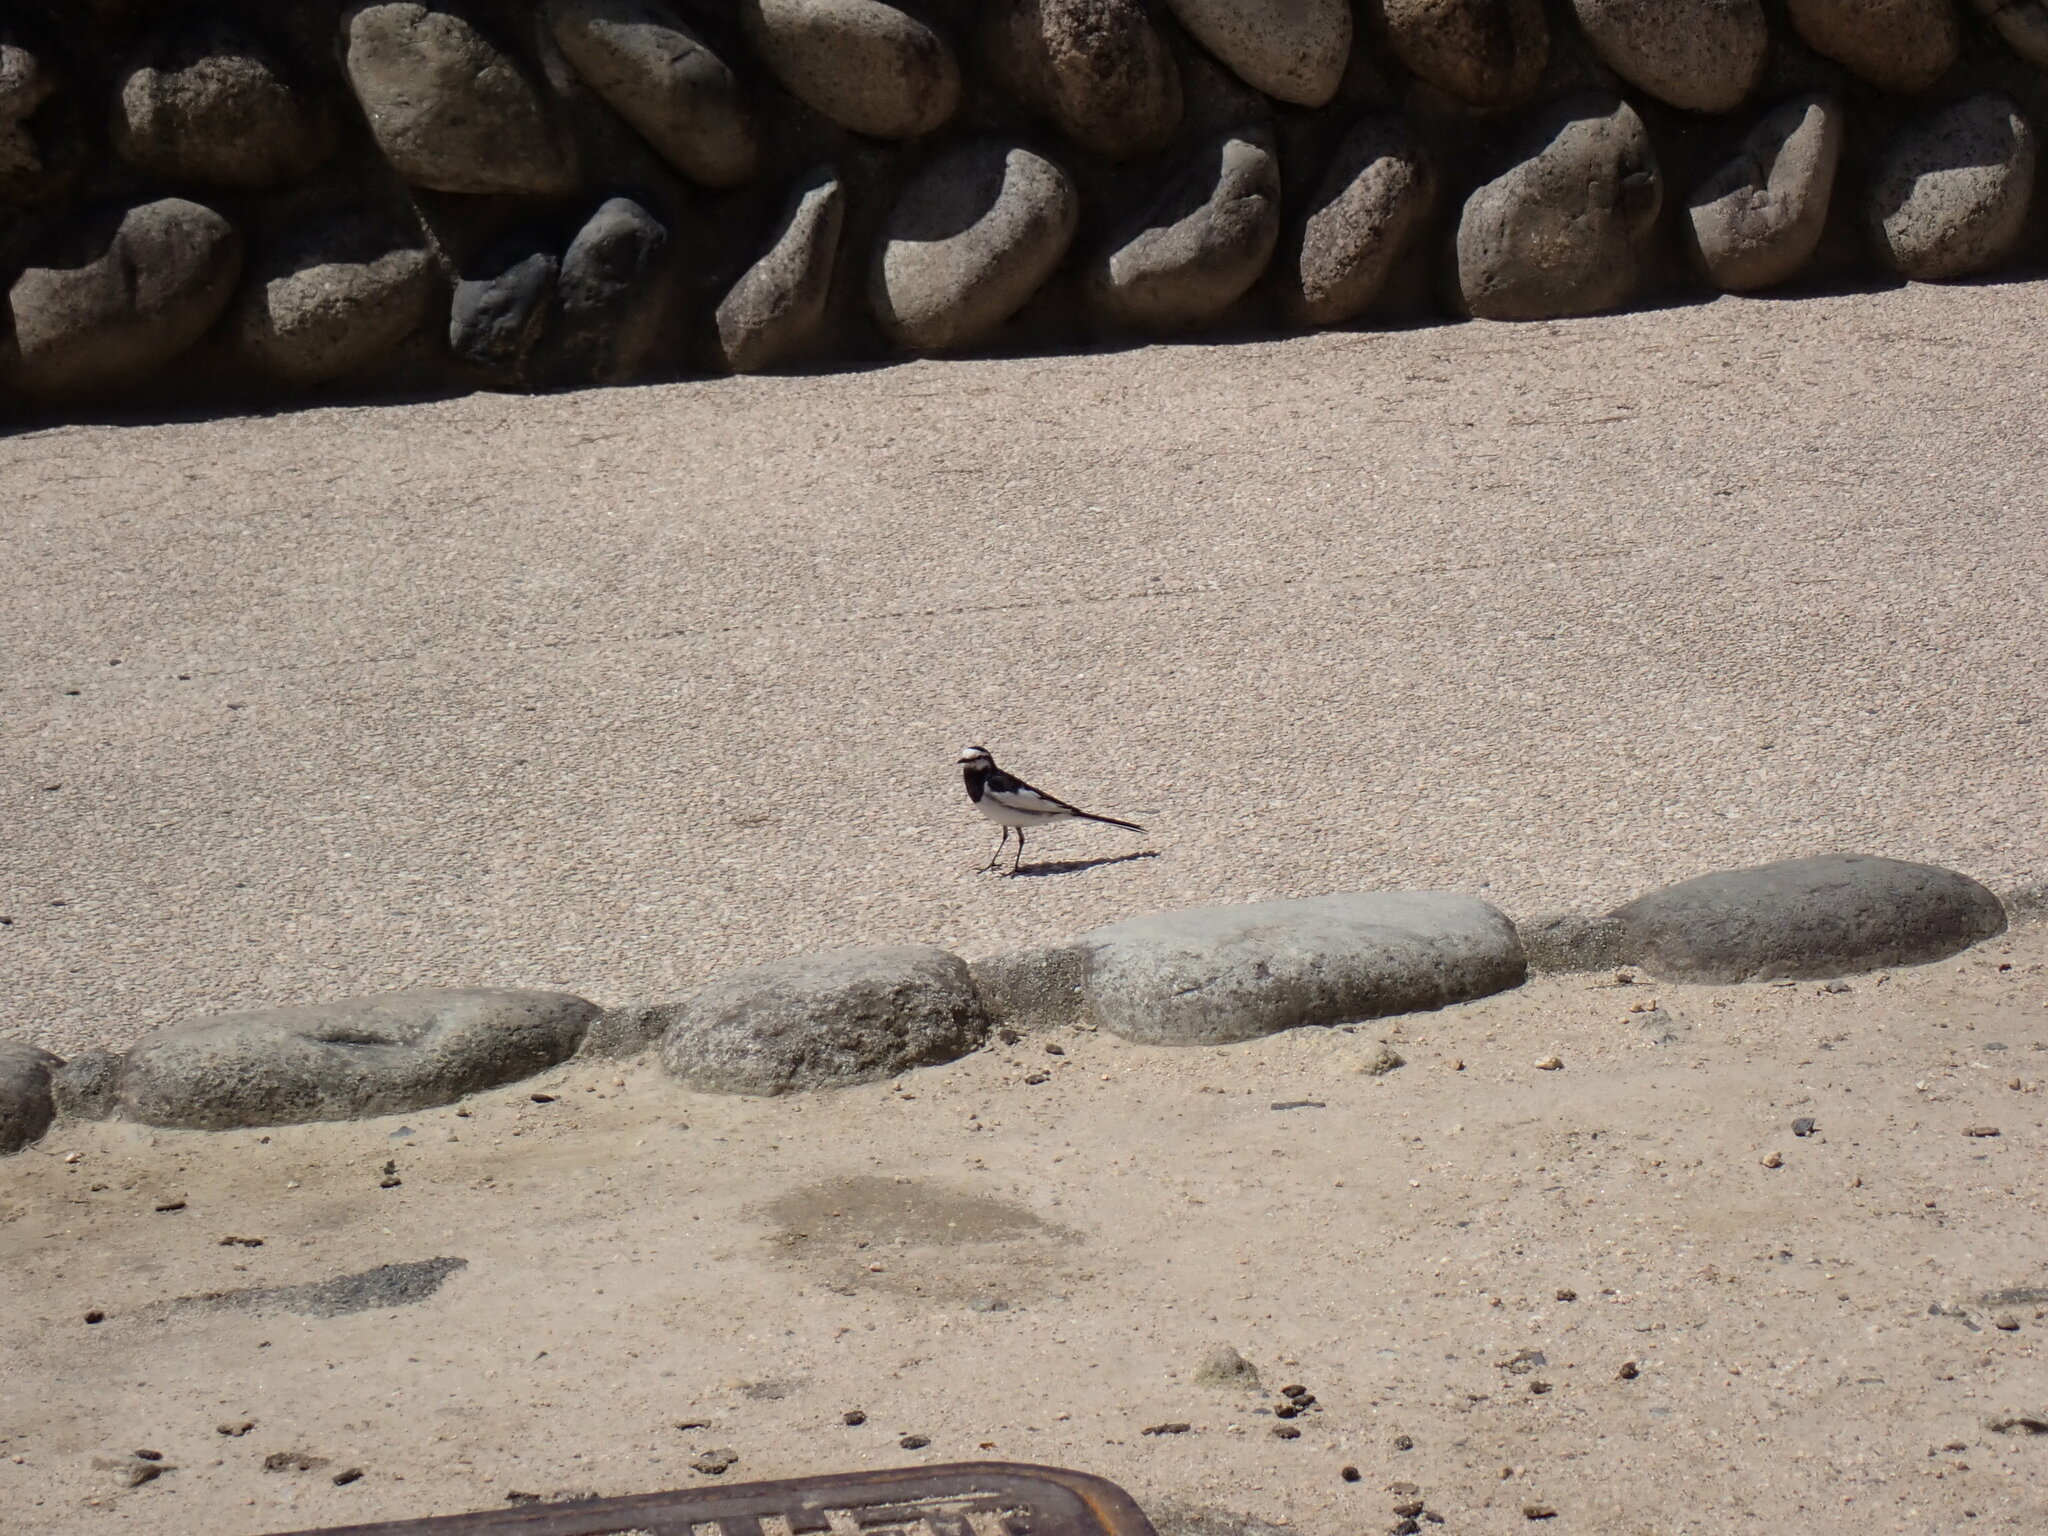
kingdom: Animalia
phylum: Chordata
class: Aves
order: Passeriformes
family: Motacillidae
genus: Motacilla
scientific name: Motacilla alba
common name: White wagtail
